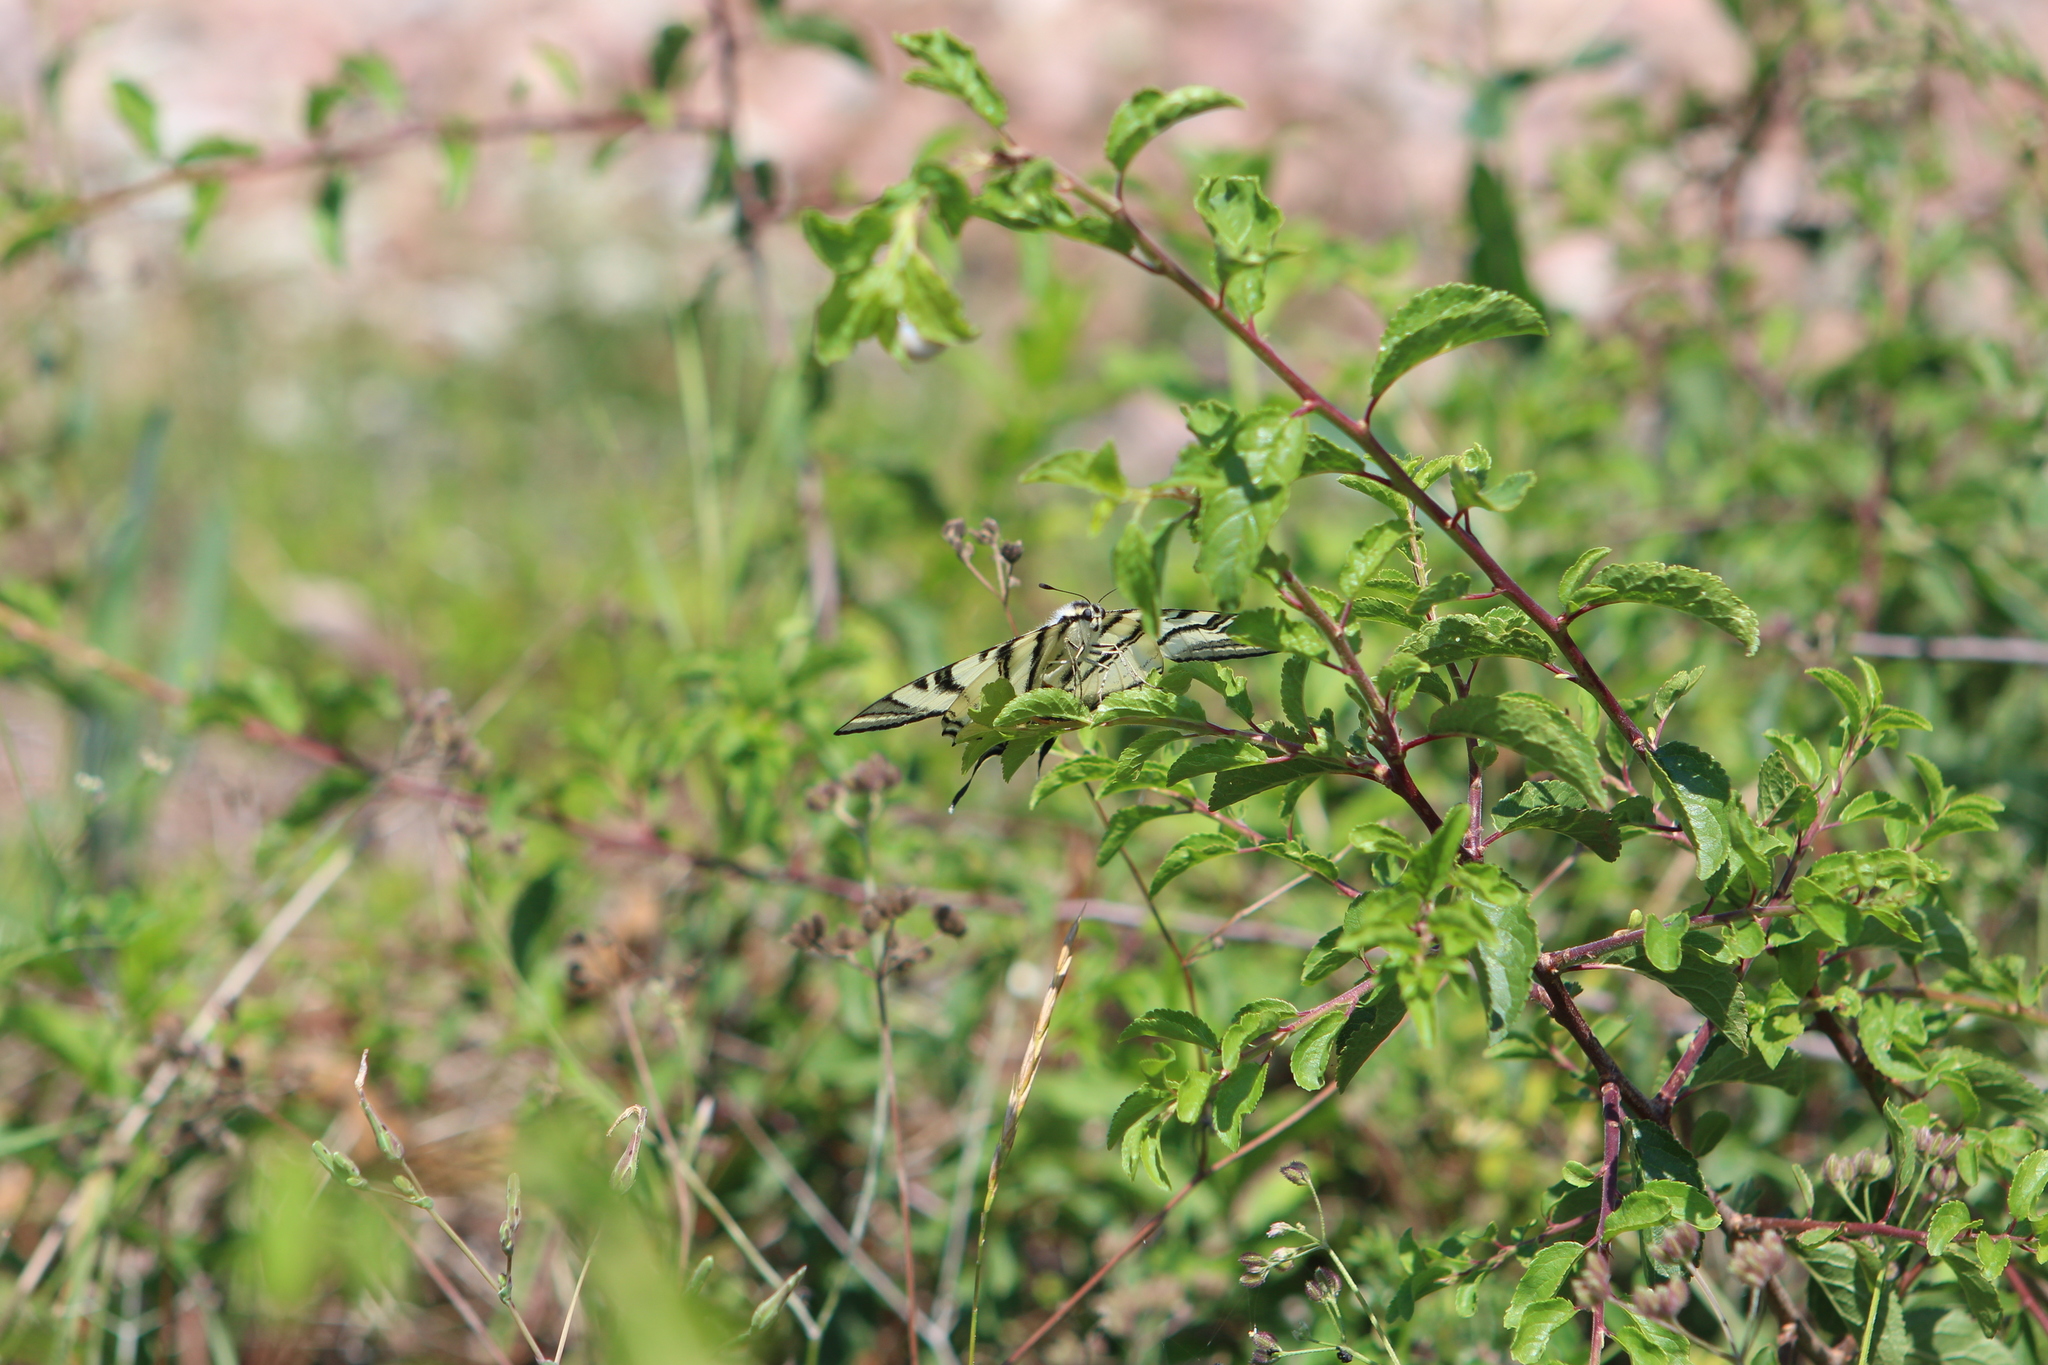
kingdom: Animalia
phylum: Arthropoda
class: Insecta
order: Lepidoptera
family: Papilionidae
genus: Iphiclides
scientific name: Iphiclides podalirius
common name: Scarce swallowtail
